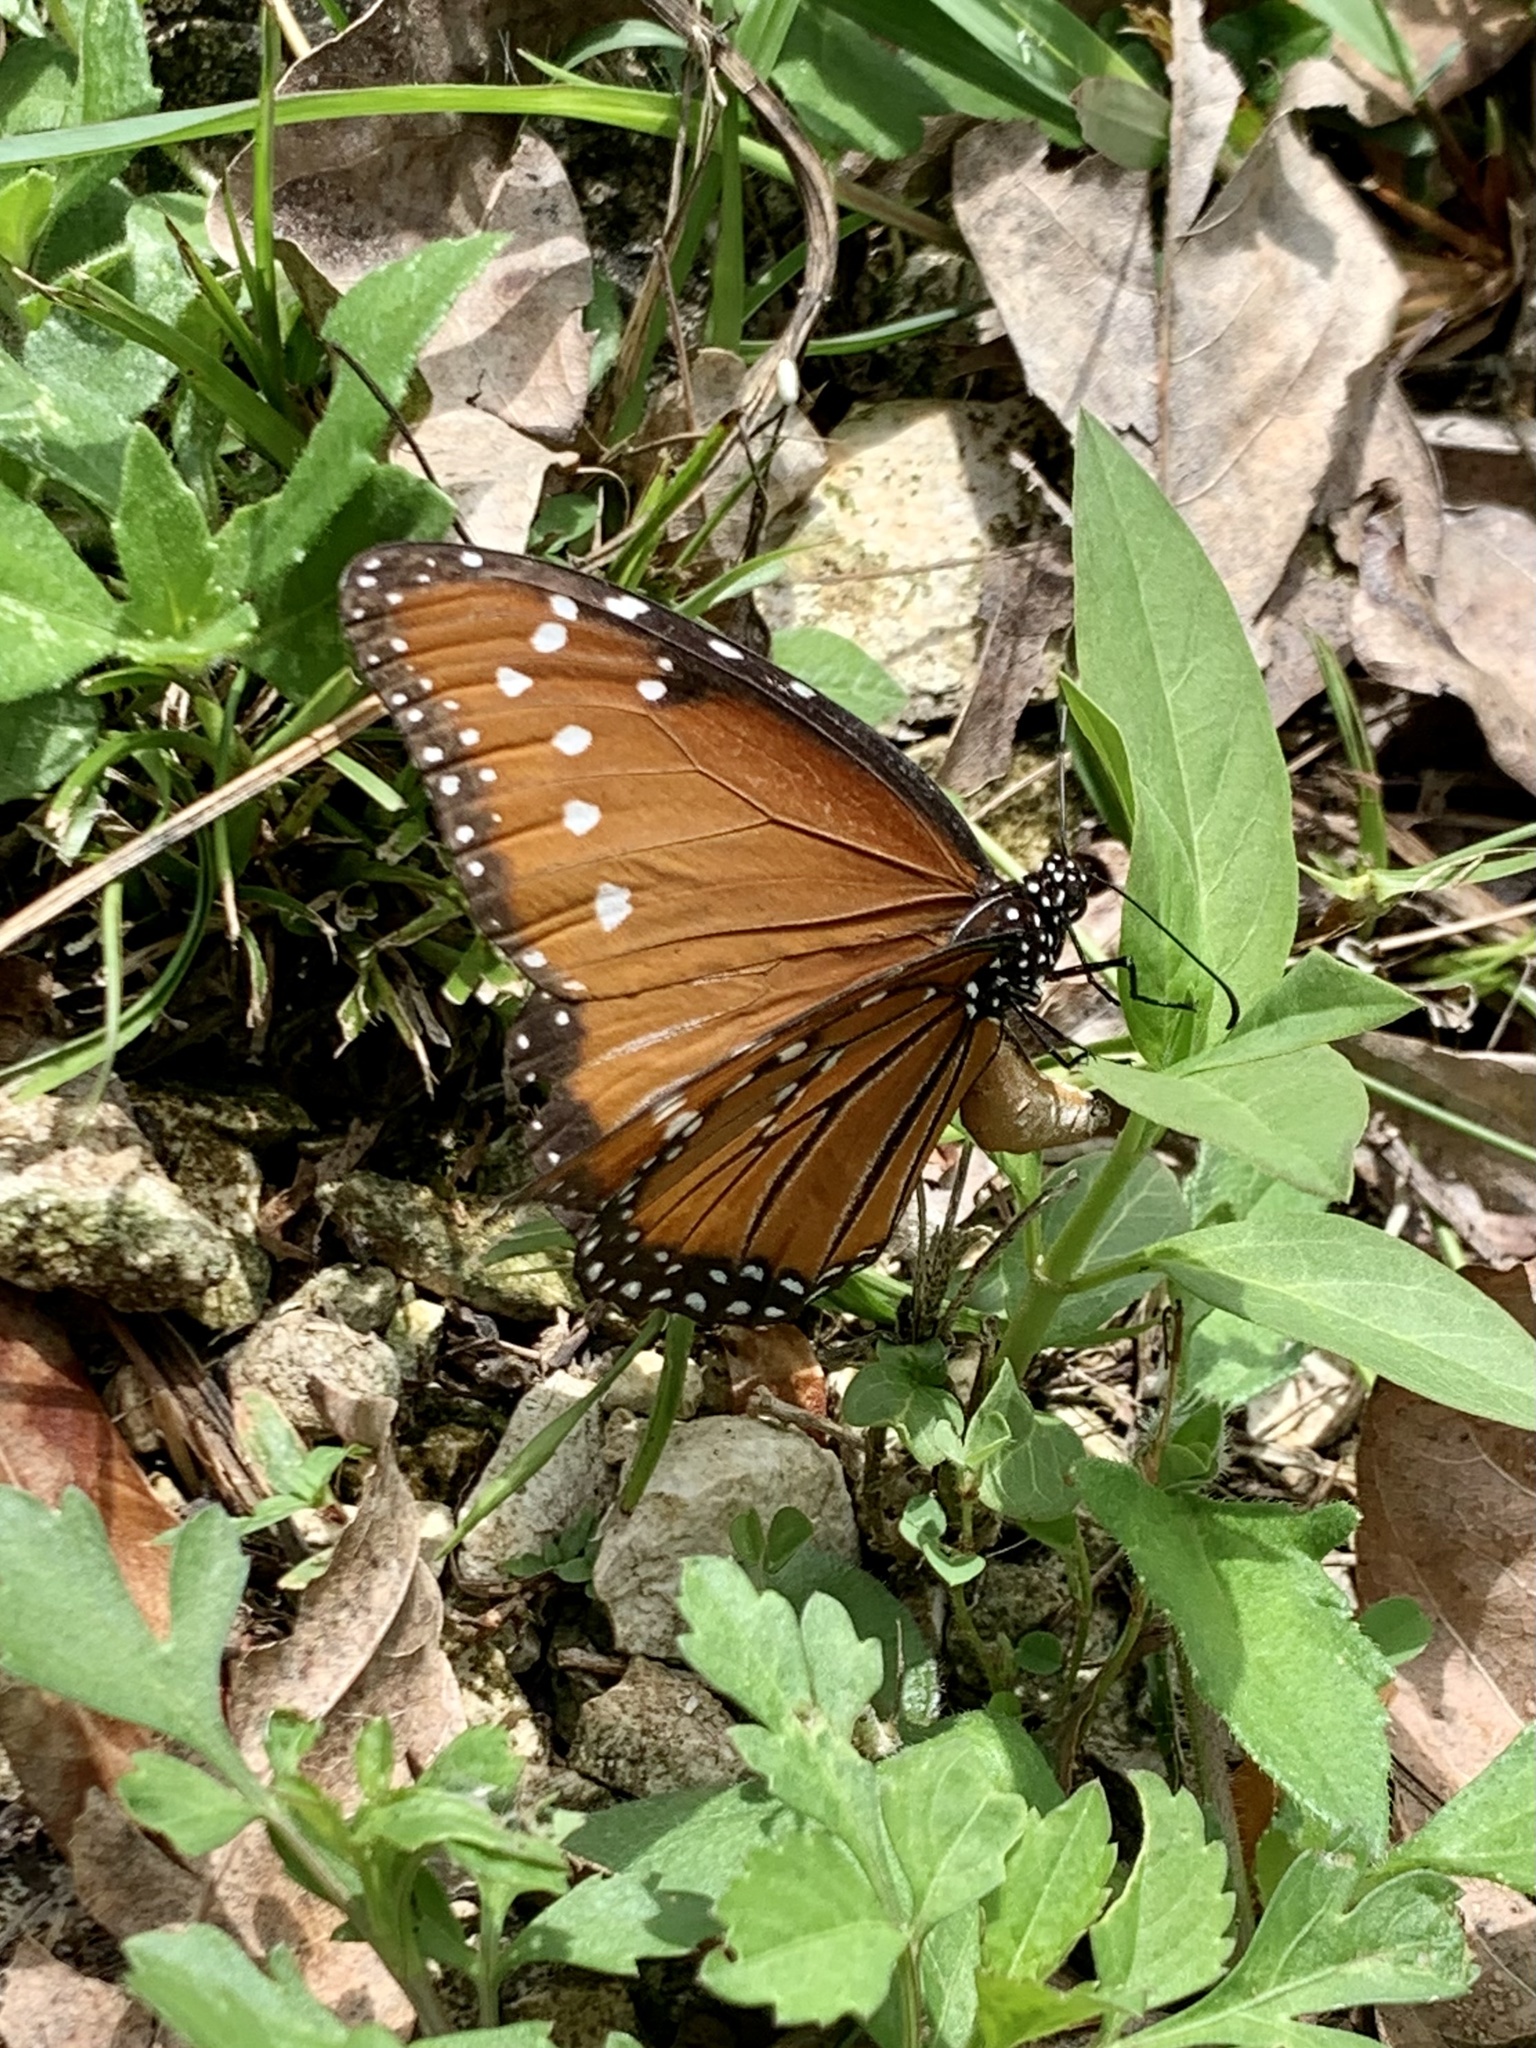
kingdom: Animalia
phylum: Arthropoda
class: Insecta
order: Lepidoptera
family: Nymphalidae
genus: Danaus
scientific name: Danaus gilippus
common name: Queen
